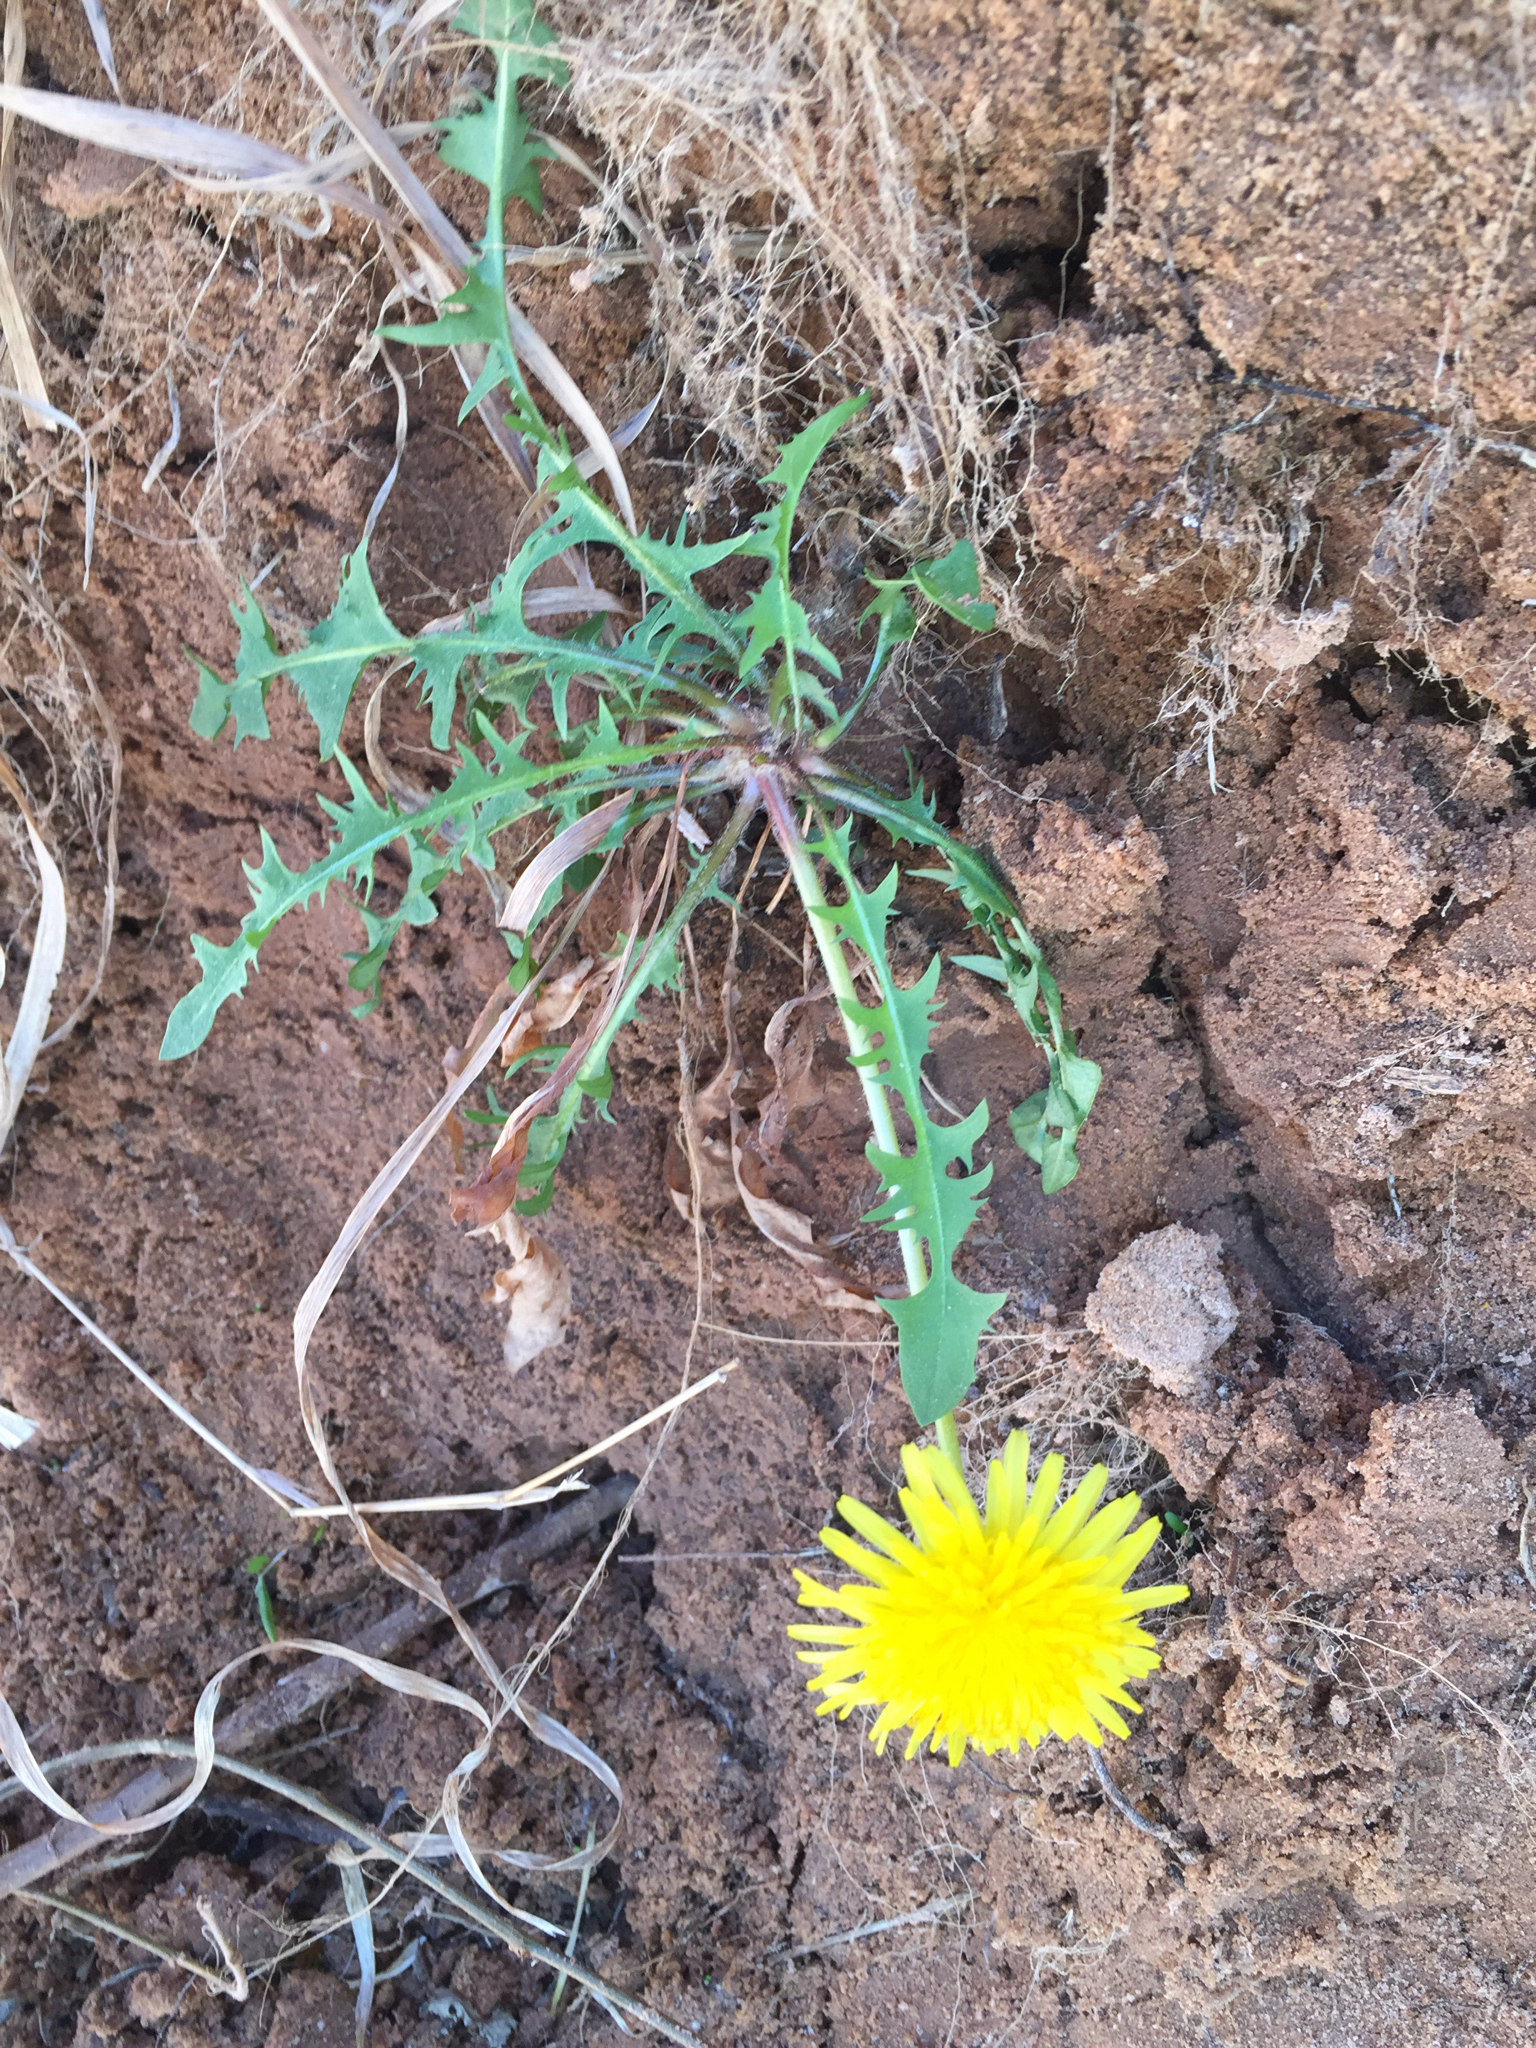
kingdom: Plantae
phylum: Tracheophyta
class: Magnoliopsida
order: Asterales
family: Asteraceae
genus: Taraxacum
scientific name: Taraxacum officinale
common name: Common dandelion
